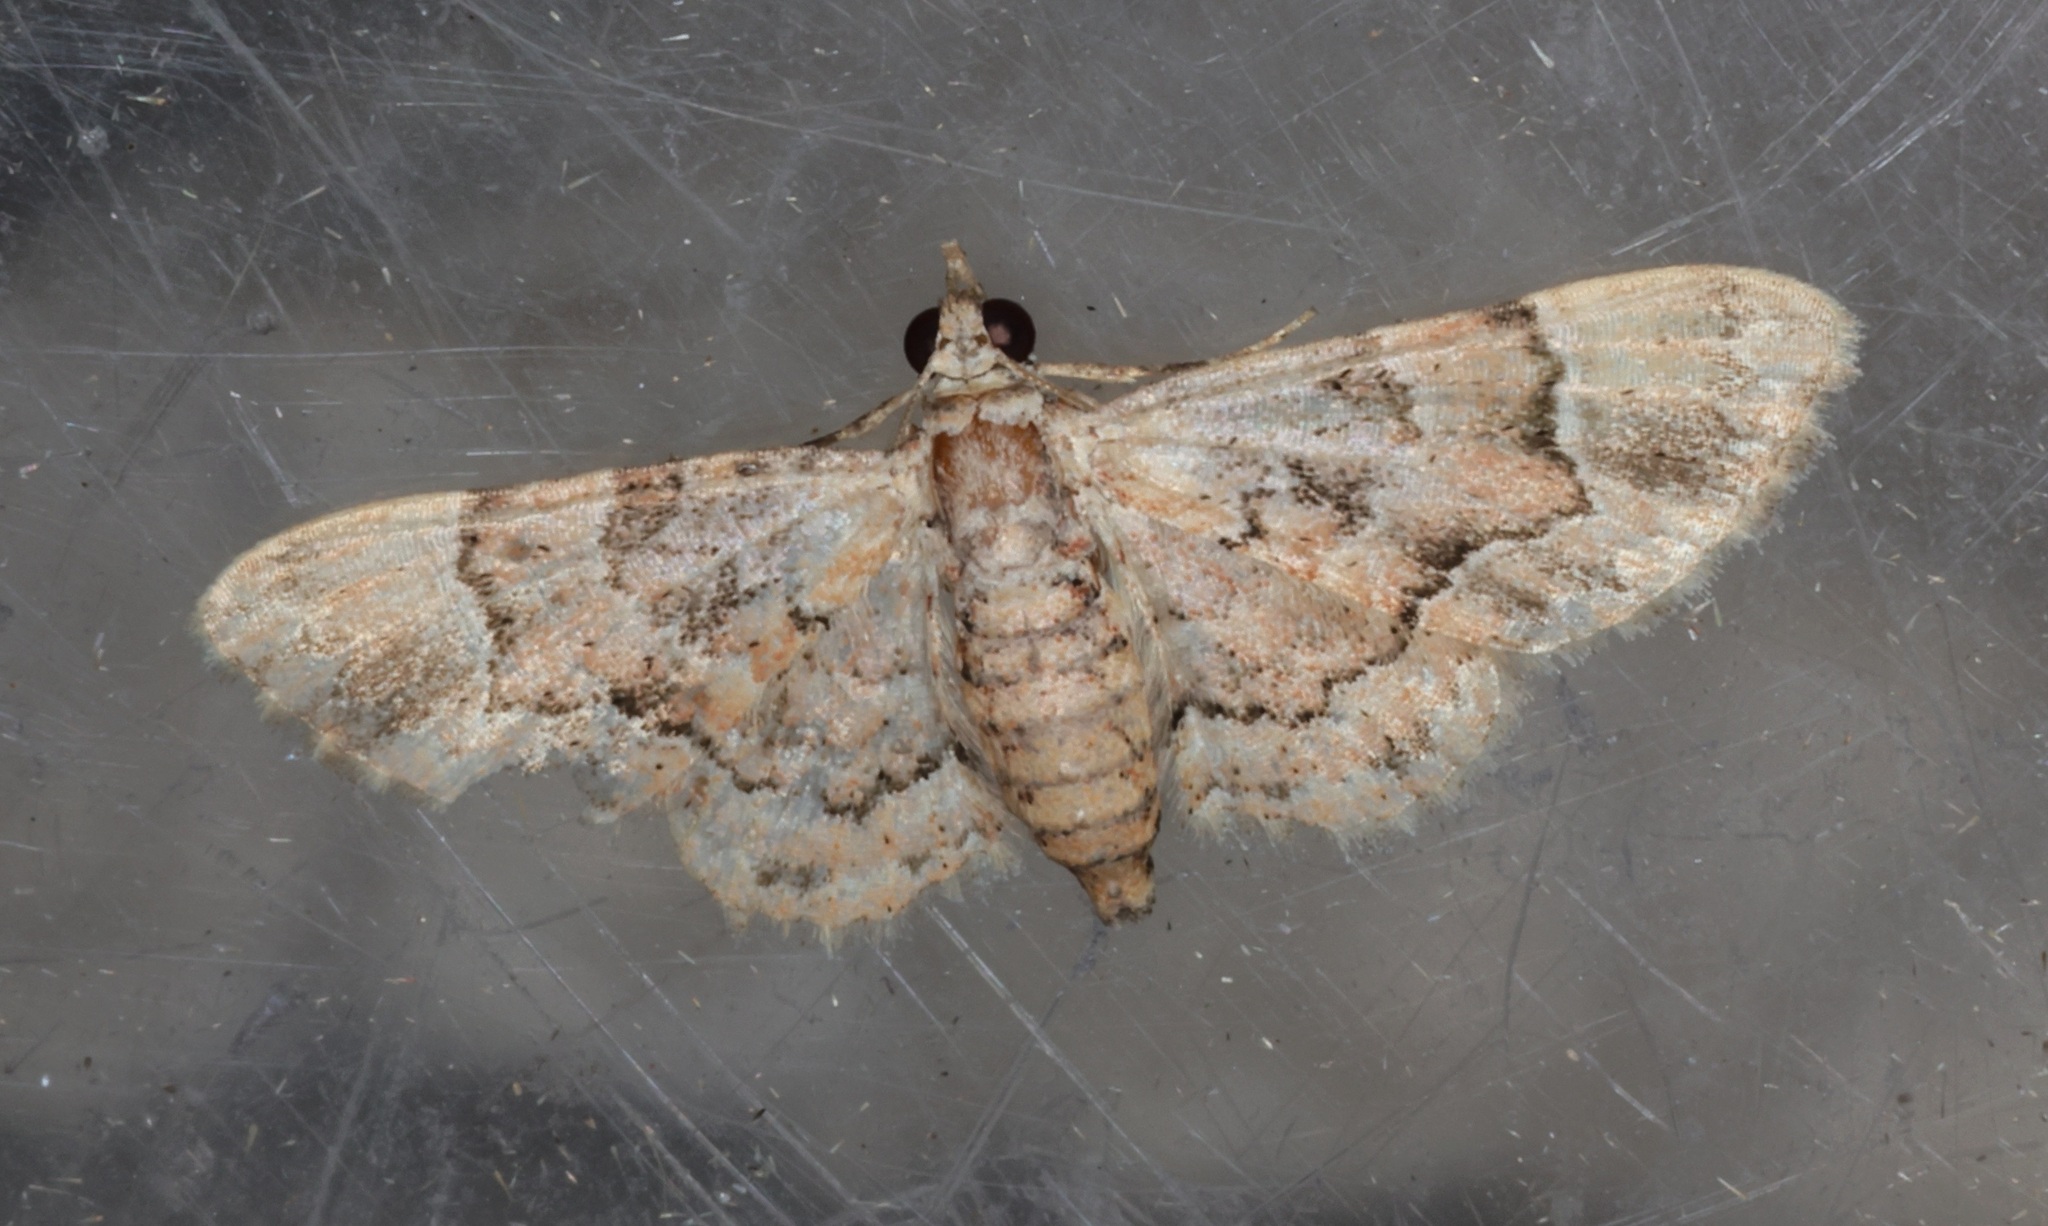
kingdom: Animalia
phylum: Arthropoda
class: Insecta
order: Lepidoptera
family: Geometridae
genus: Glaucoclystis
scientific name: Glaucoclystis acygonia
